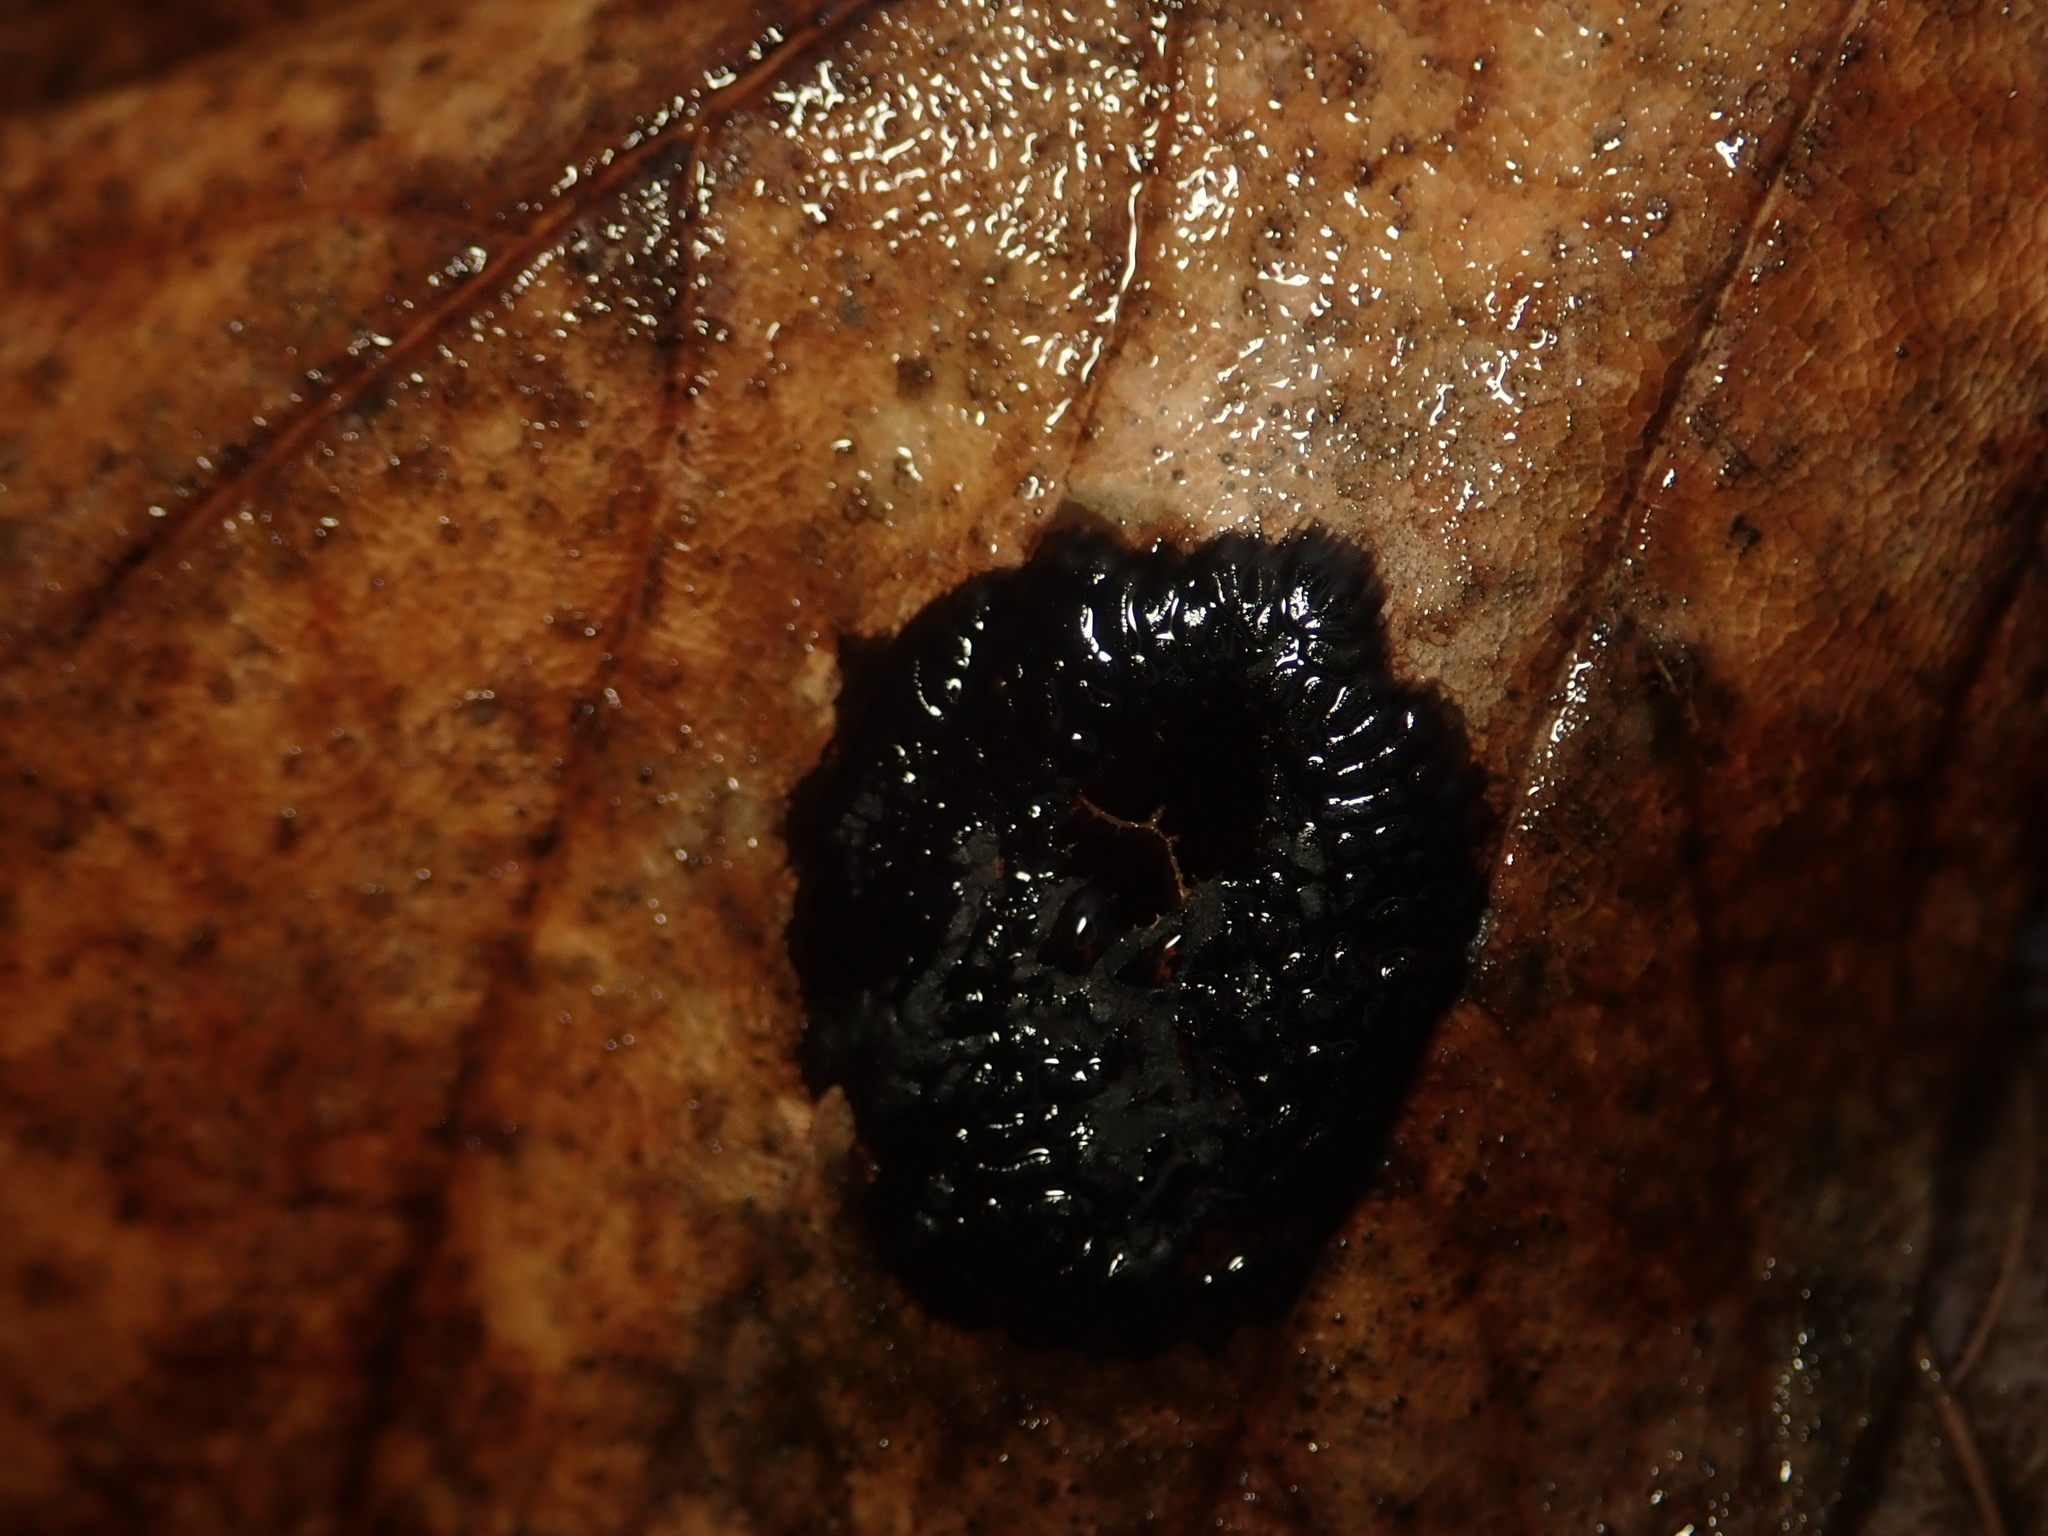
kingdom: Fungi
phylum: Ascomycota
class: Leotiomycetes
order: Rhytismatales
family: Rhytismataceae
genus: Rhytisma
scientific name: Rhytisma acerinum
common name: European tar spot
